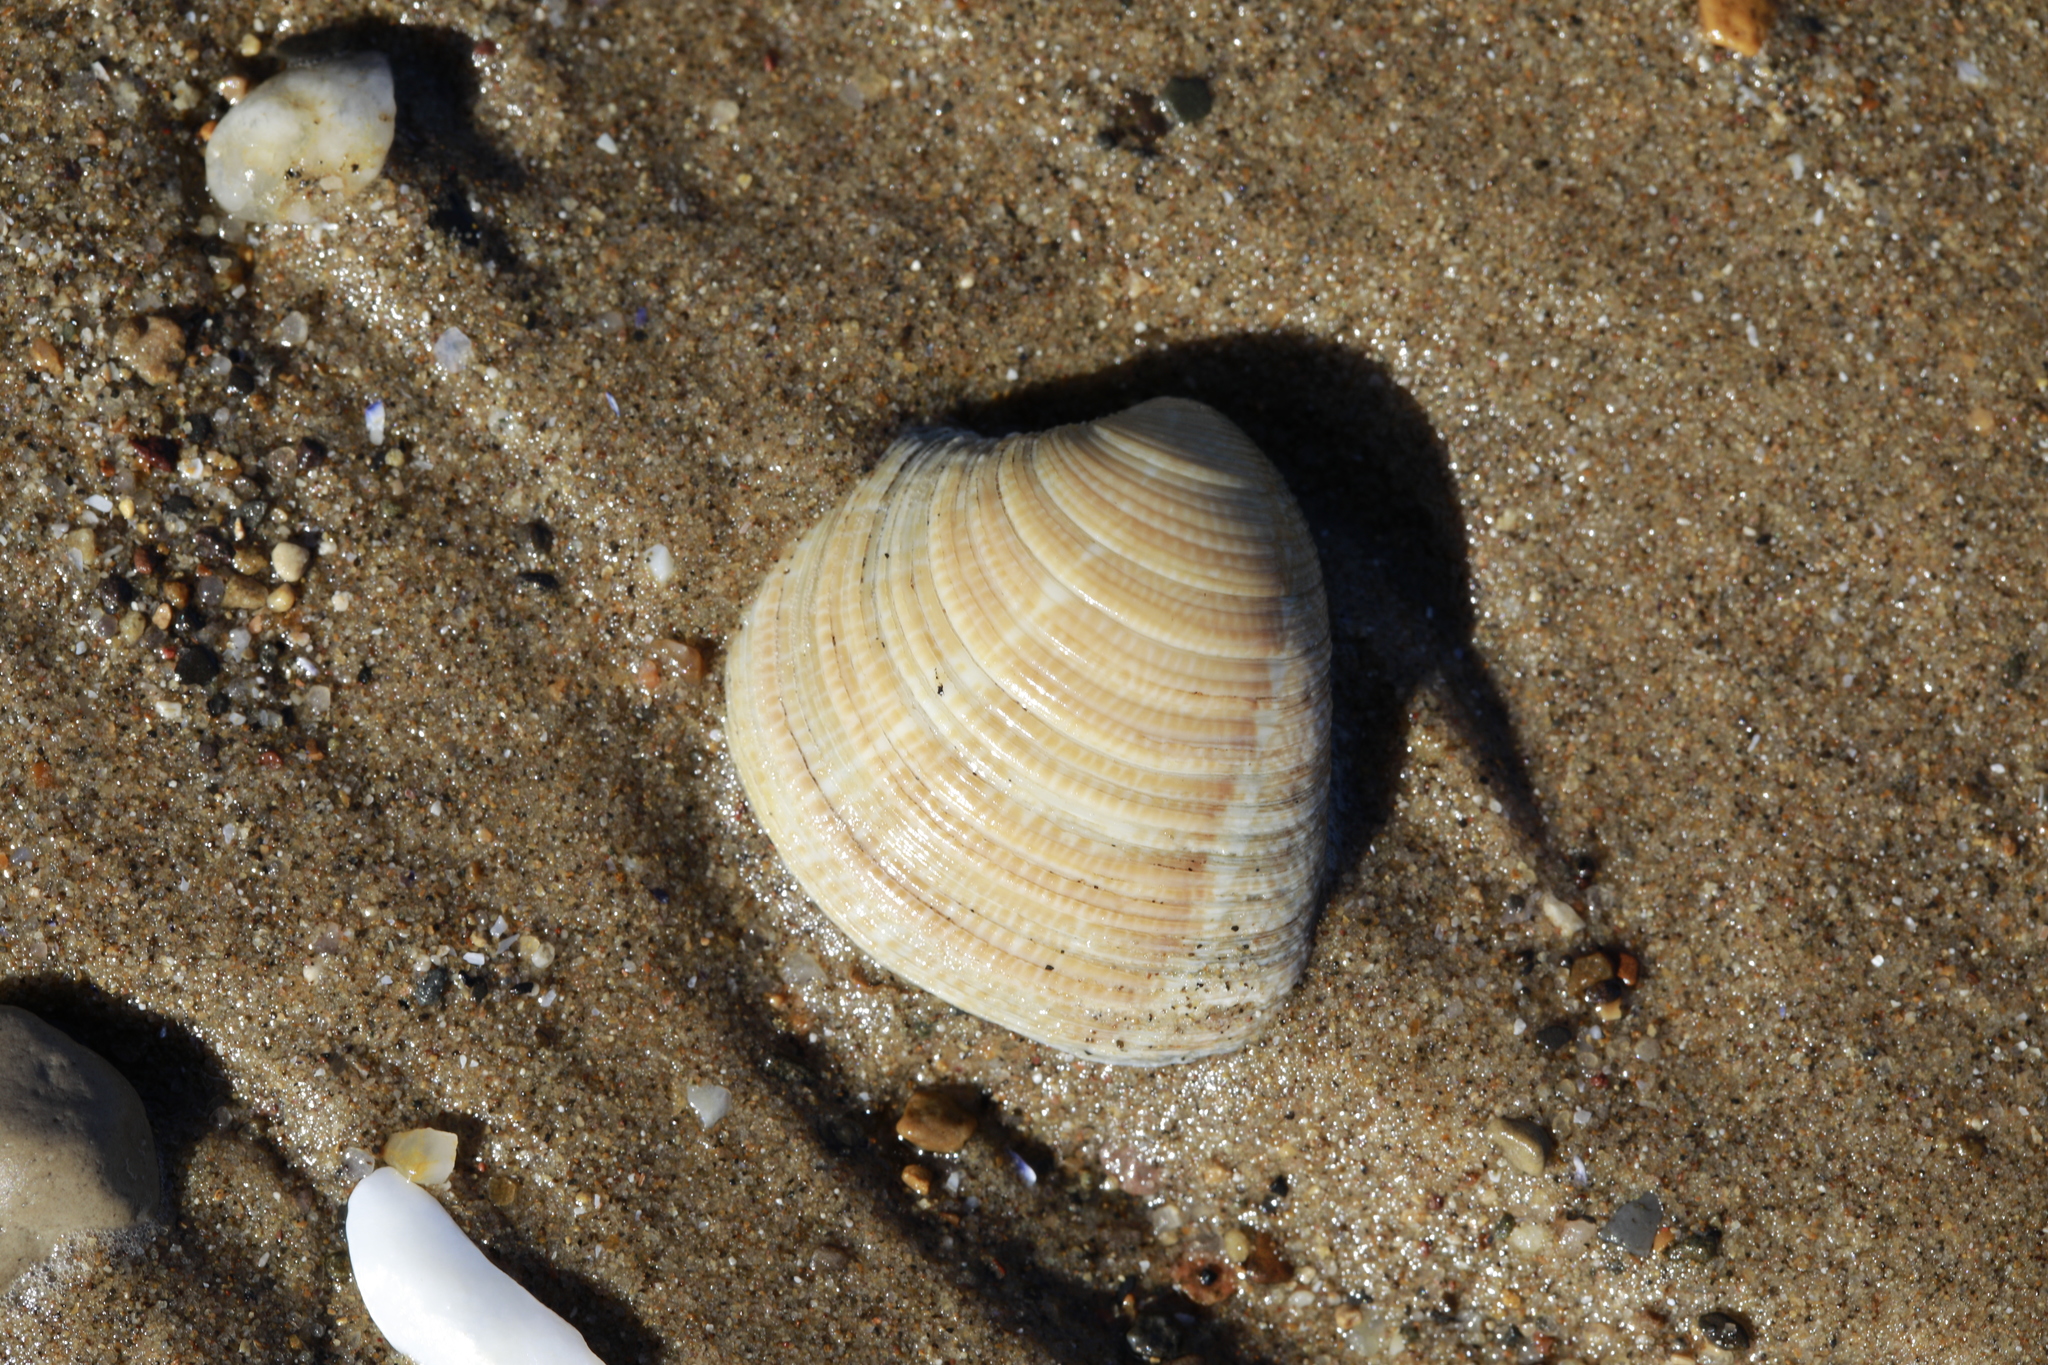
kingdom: Animalia
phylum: Mollusca
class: Bivalvia
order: Venerida
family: Veneridae
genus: Chamelea
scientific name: Chamelea striatula
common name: Striped venus
